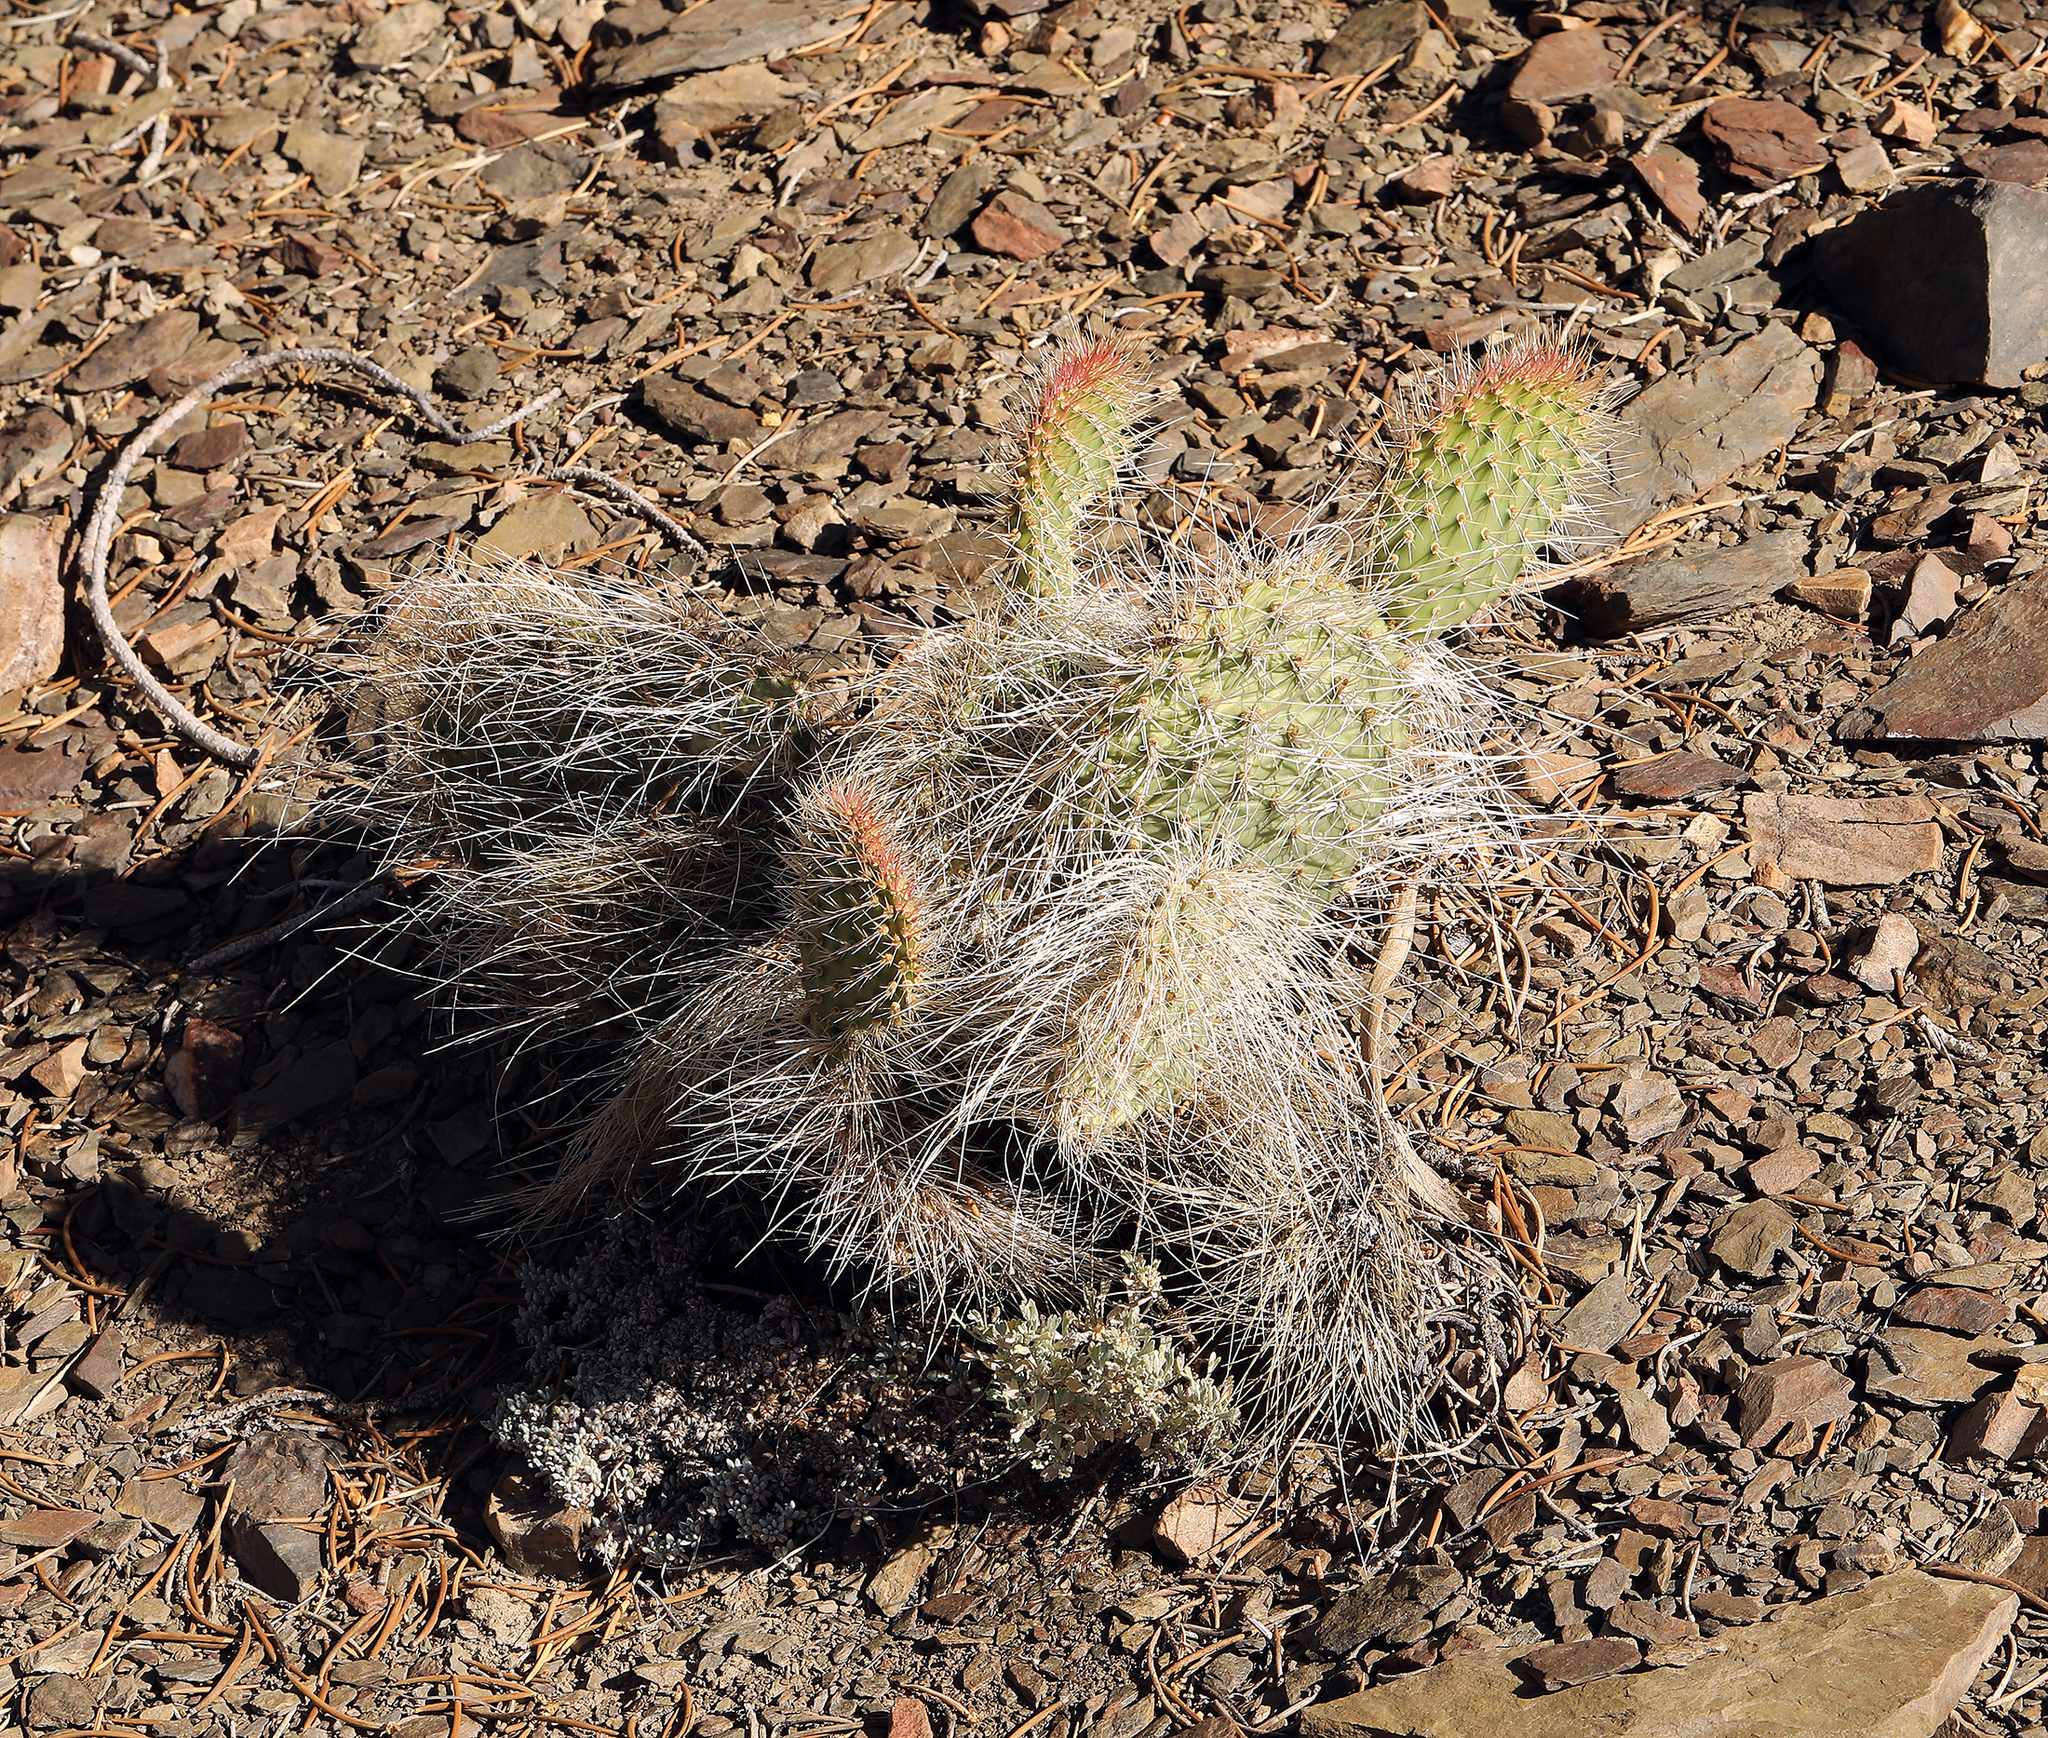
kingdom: Plantae
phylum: Tracheophyta
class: Magnoliopsida
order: Caryophyllales
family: Cactaceae
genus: Opuntia
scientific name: Opuntia polyacantha
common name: Plains prickly-pear
